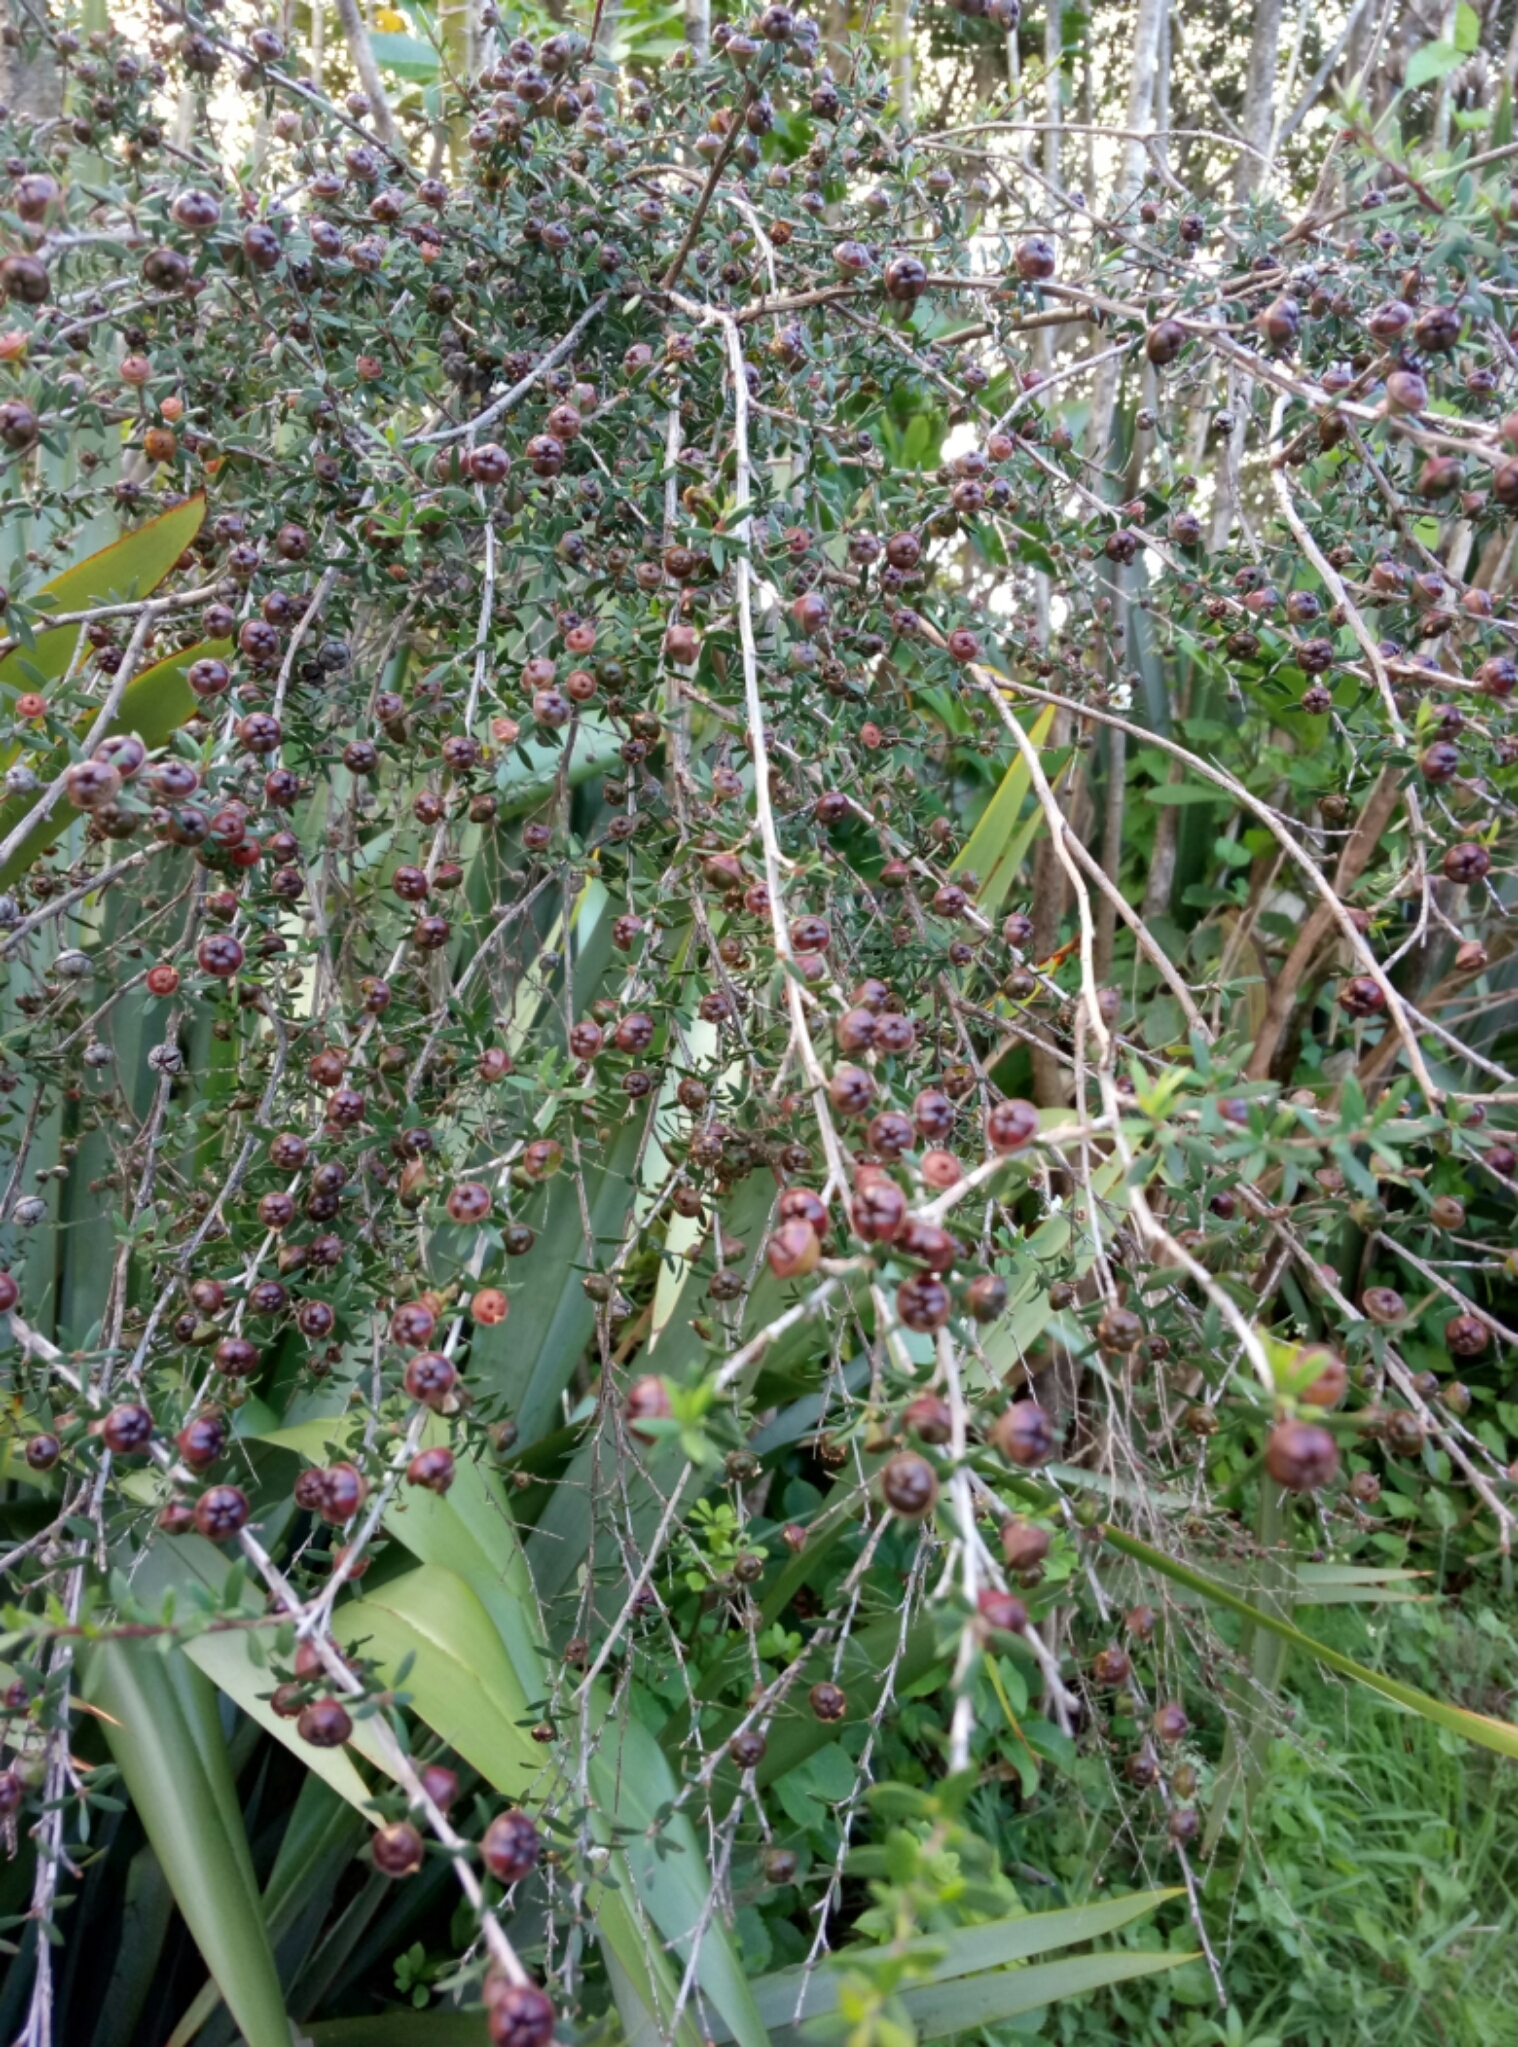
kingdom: Plantae
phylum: Tracheophyta
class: Magnoliopsida
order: Myrtales
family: Myrtaceae
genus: Leptospermum
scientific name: Leptospermum scoparium
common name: Broom tea-tree
